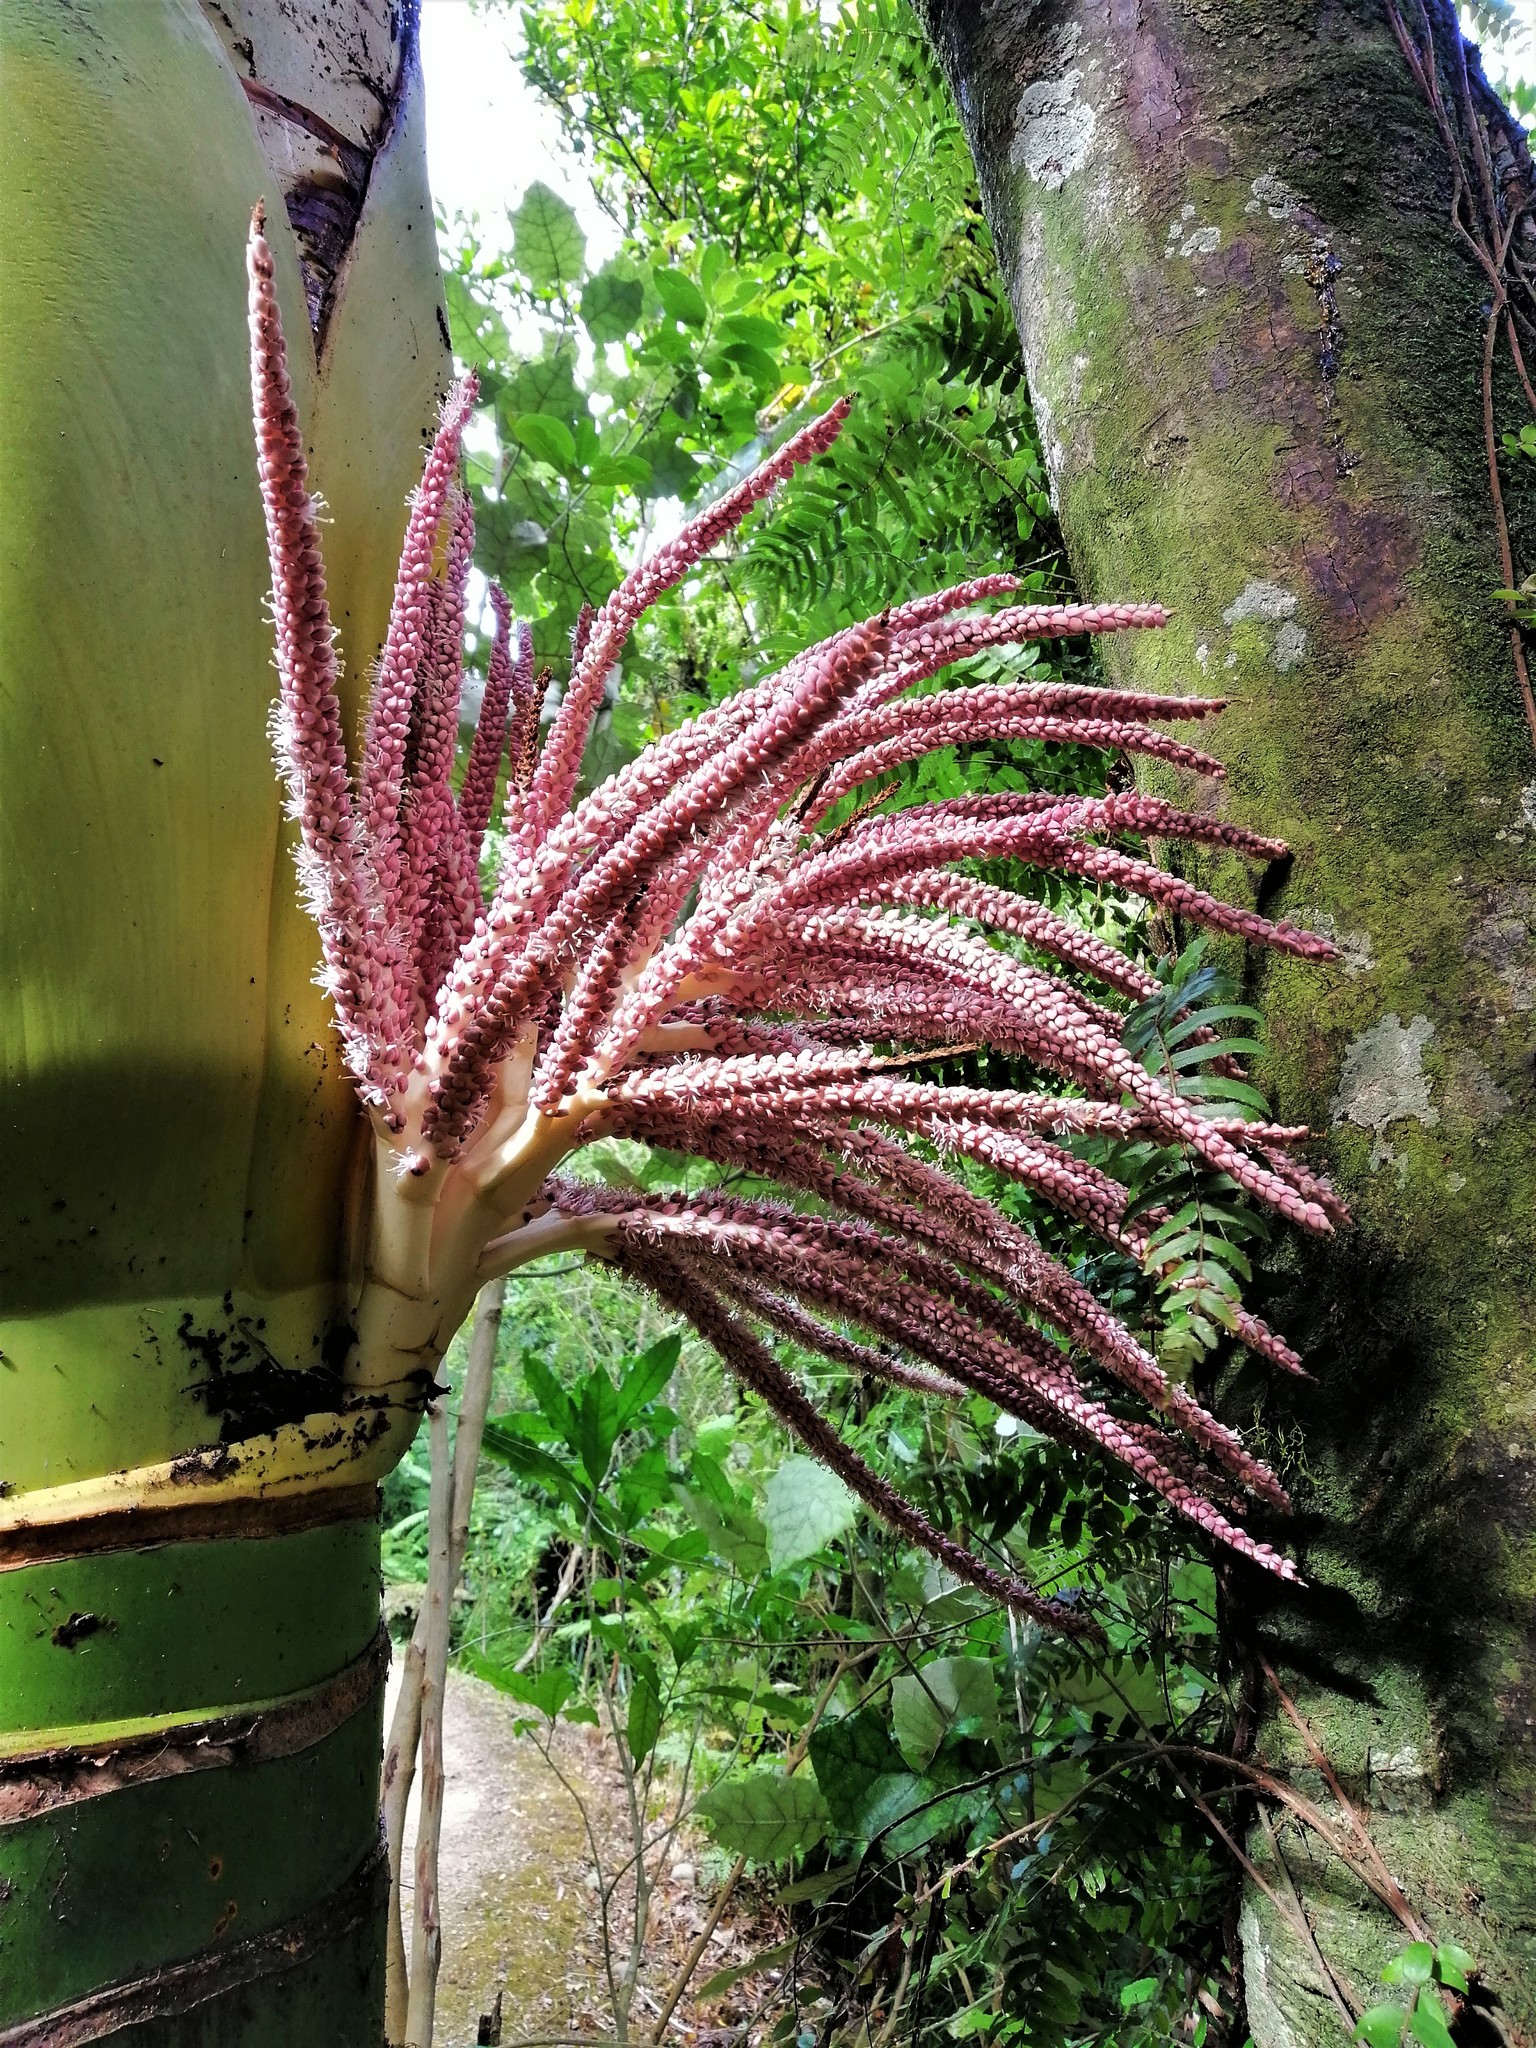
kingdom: Plantae
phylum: Tracheophyta
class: Liliopsida
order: Arecales
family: Arecaceae
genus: Rhopalostylis
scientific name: Rhopalostylis sapida
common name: Feather-duster palm
